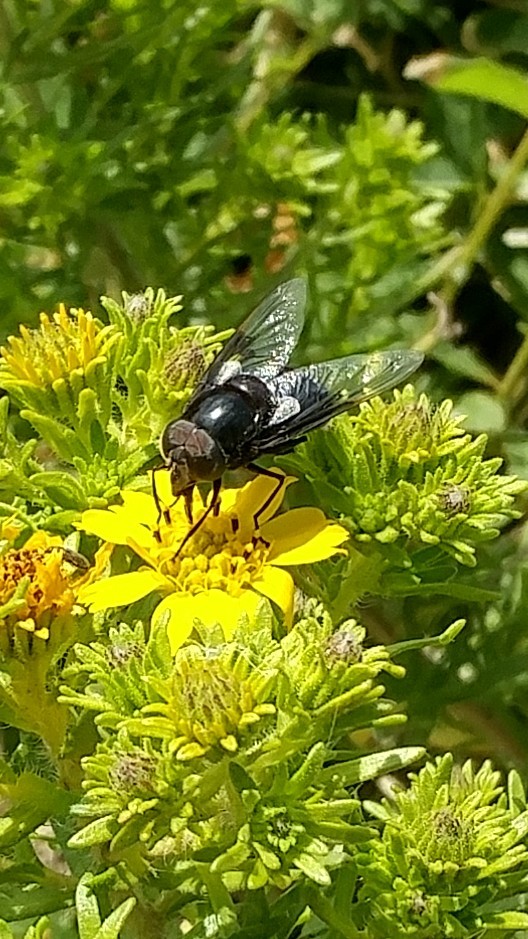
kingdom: Animalia
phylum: Arthropoda
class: Insecta
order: Diptera
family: Syrphidae
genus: Copestylum
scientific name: Copestylum violaceum
